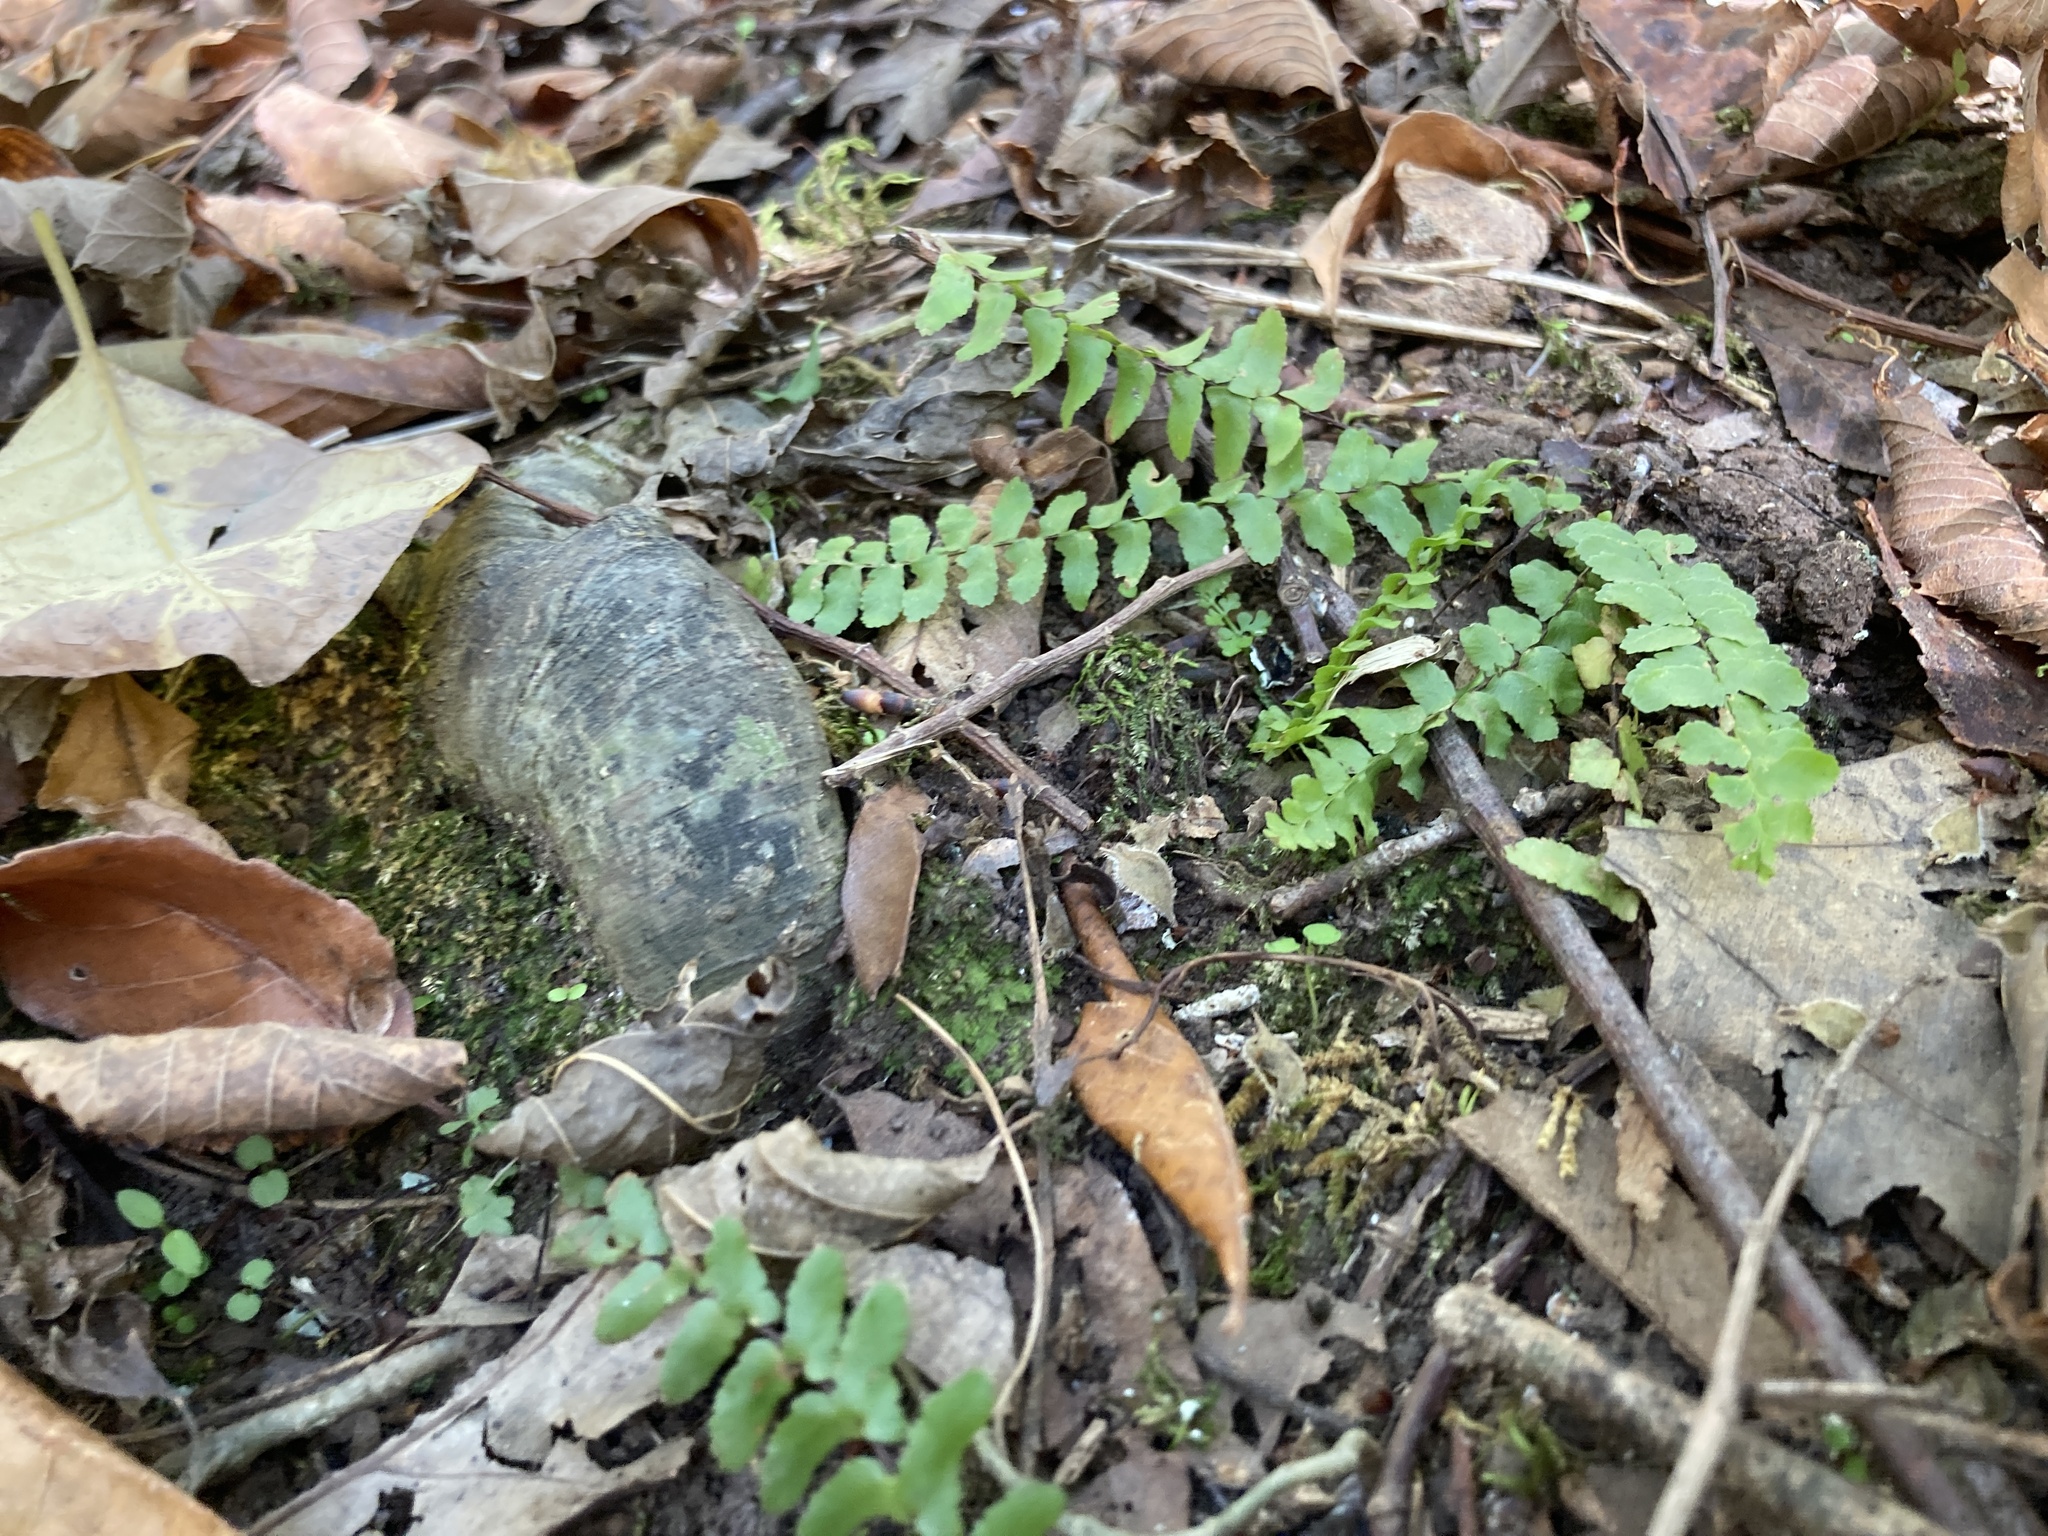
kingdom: Plantae
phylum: Tracheophyta
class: Polypodiopsida
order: Polypodiales
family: Aspleniaceae
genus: Asplenium
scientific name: Asplenium platyneuron
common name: Ebony spleenwort
